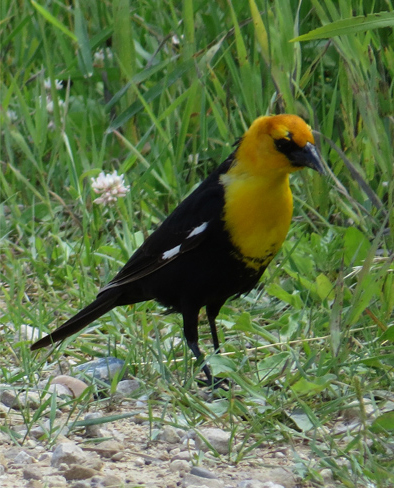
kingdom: Animalia
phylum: Chordata
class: Aves
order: Passeriformes
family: Icteridae
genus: Xanthocephalus
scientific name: Xanthocephalus xanthocephalus
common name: Yellow-headed blackbird
